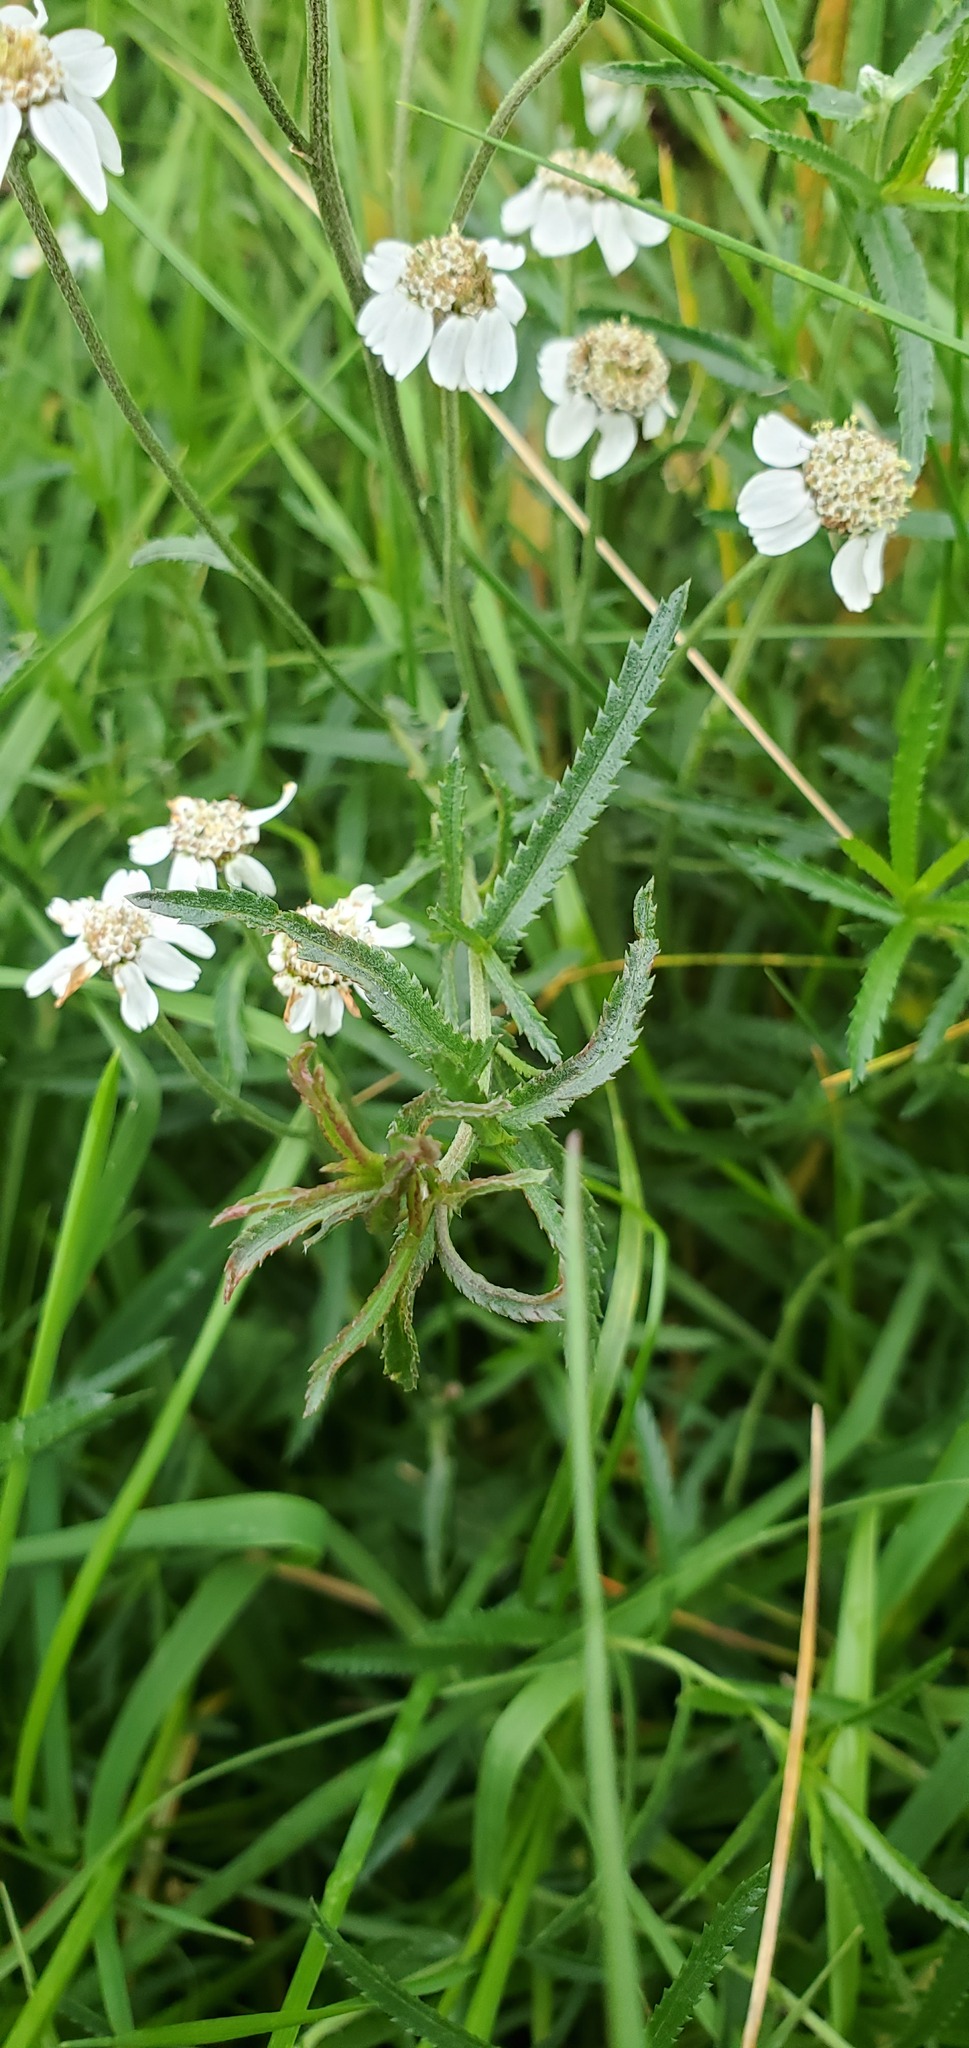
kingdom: Plantae
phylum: Tracheophyta
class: Magnoliopsida
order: Asterales
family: Asteraceae
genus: Achillea
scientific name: Achillea ptarmica
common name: Sneezeweed
